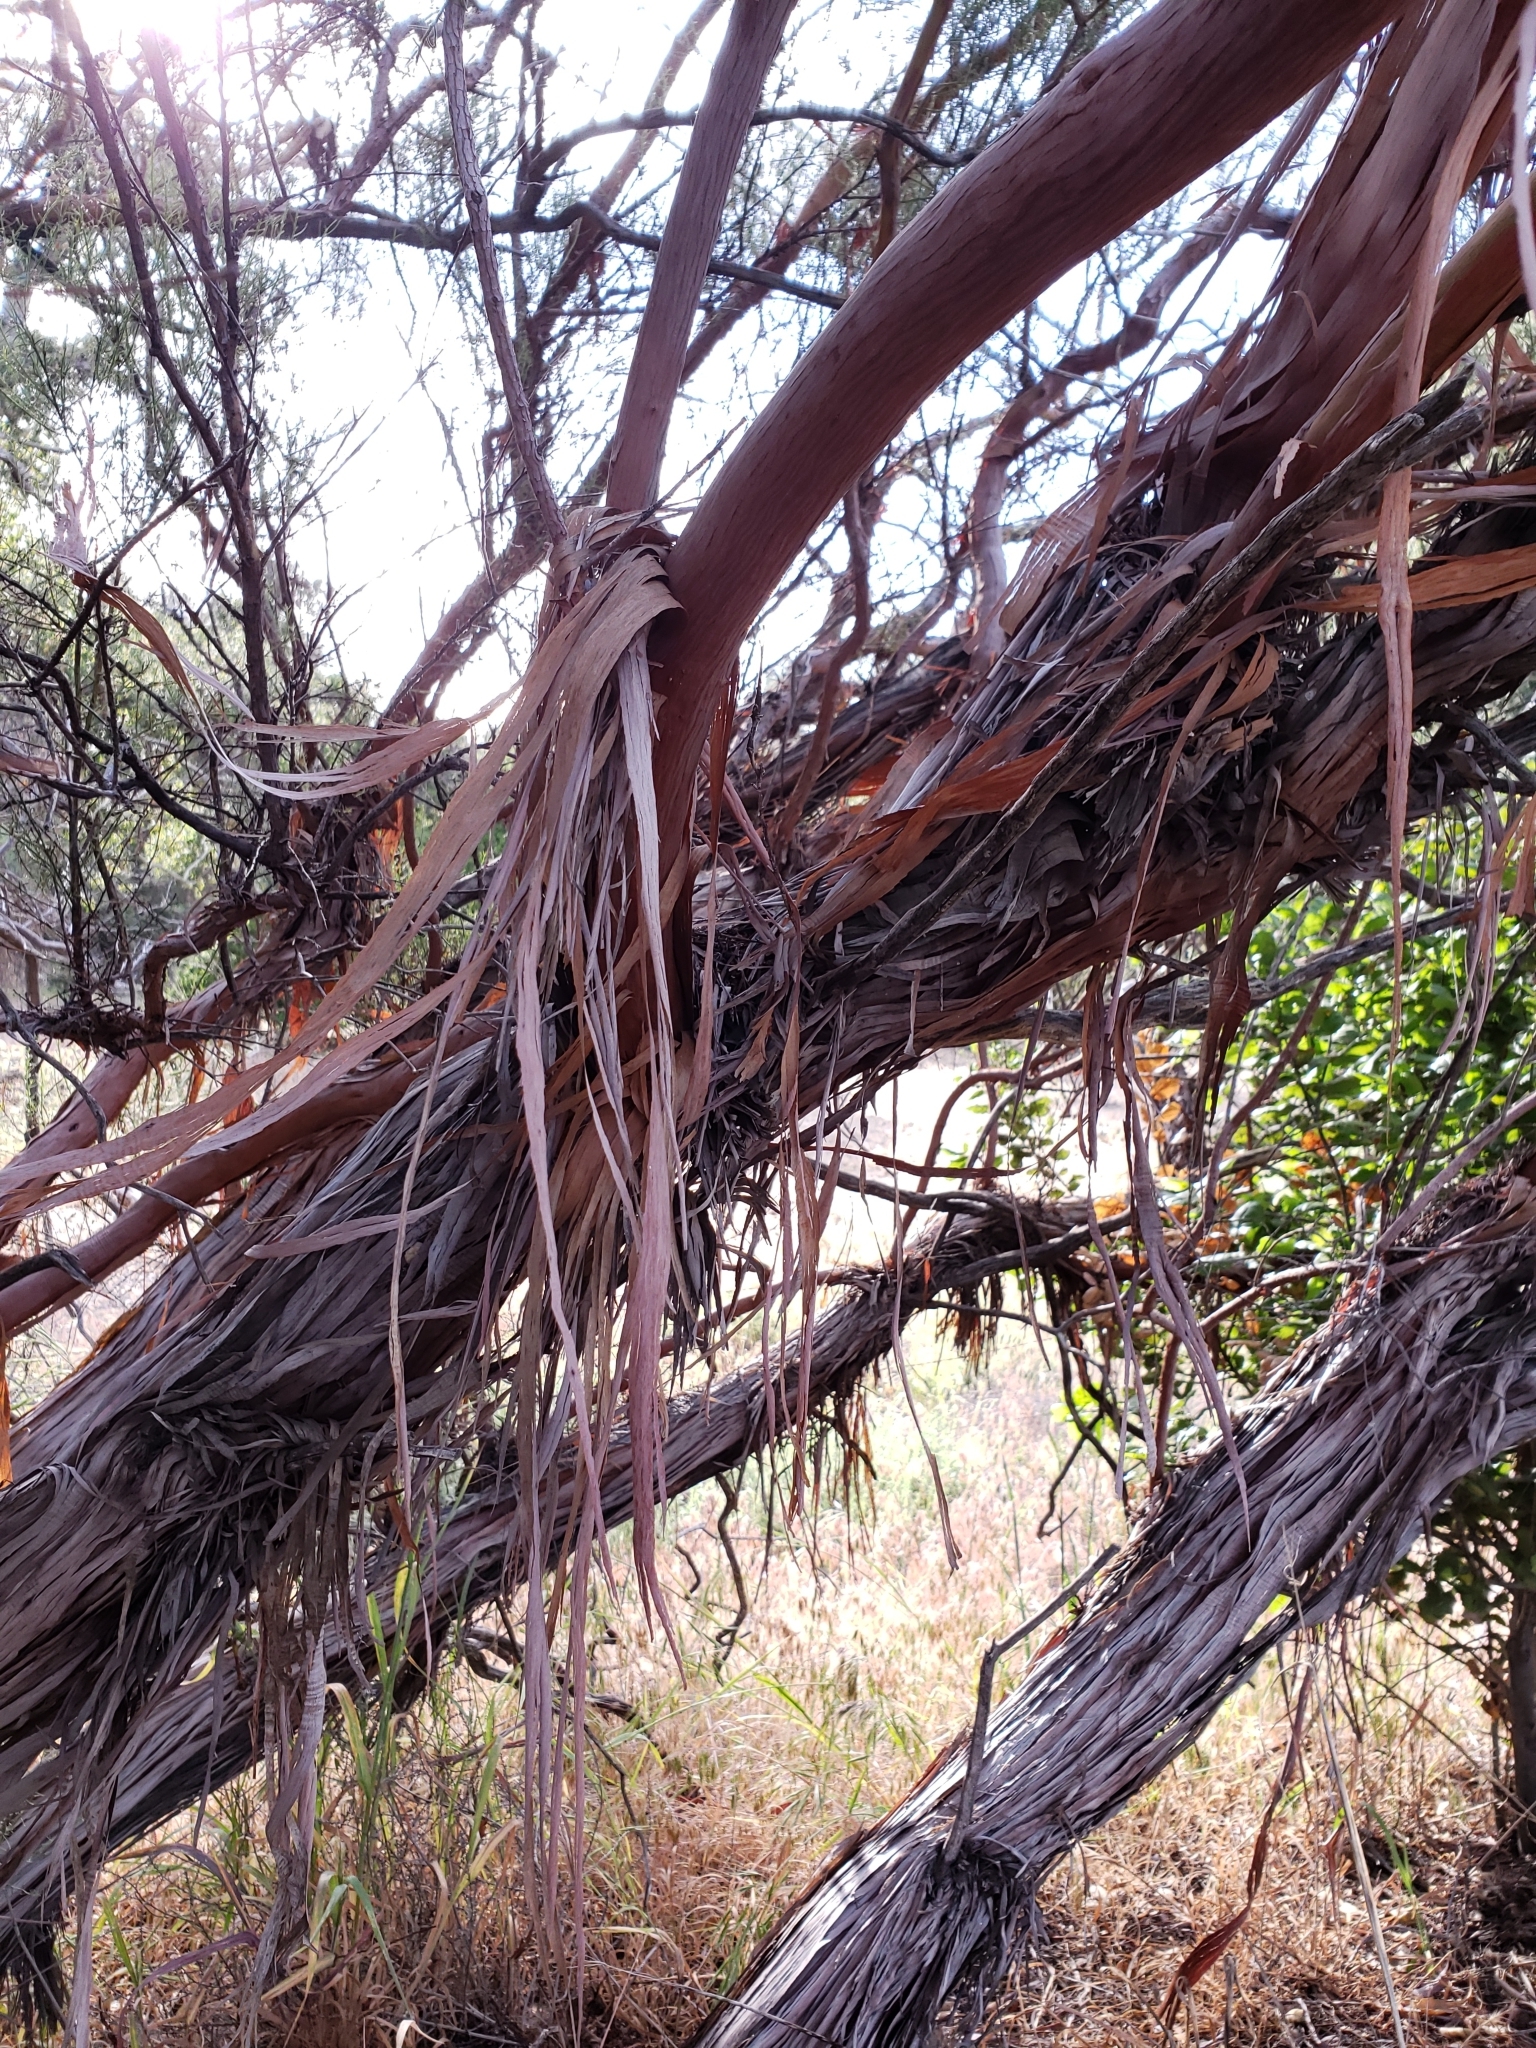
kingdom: Plantae
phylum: Tracheophyta
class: Magnoliopsida
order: Rosales
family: Rosaceae
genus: Adenostoma
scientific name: Adenostoma sparsifolium
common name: Red shank
